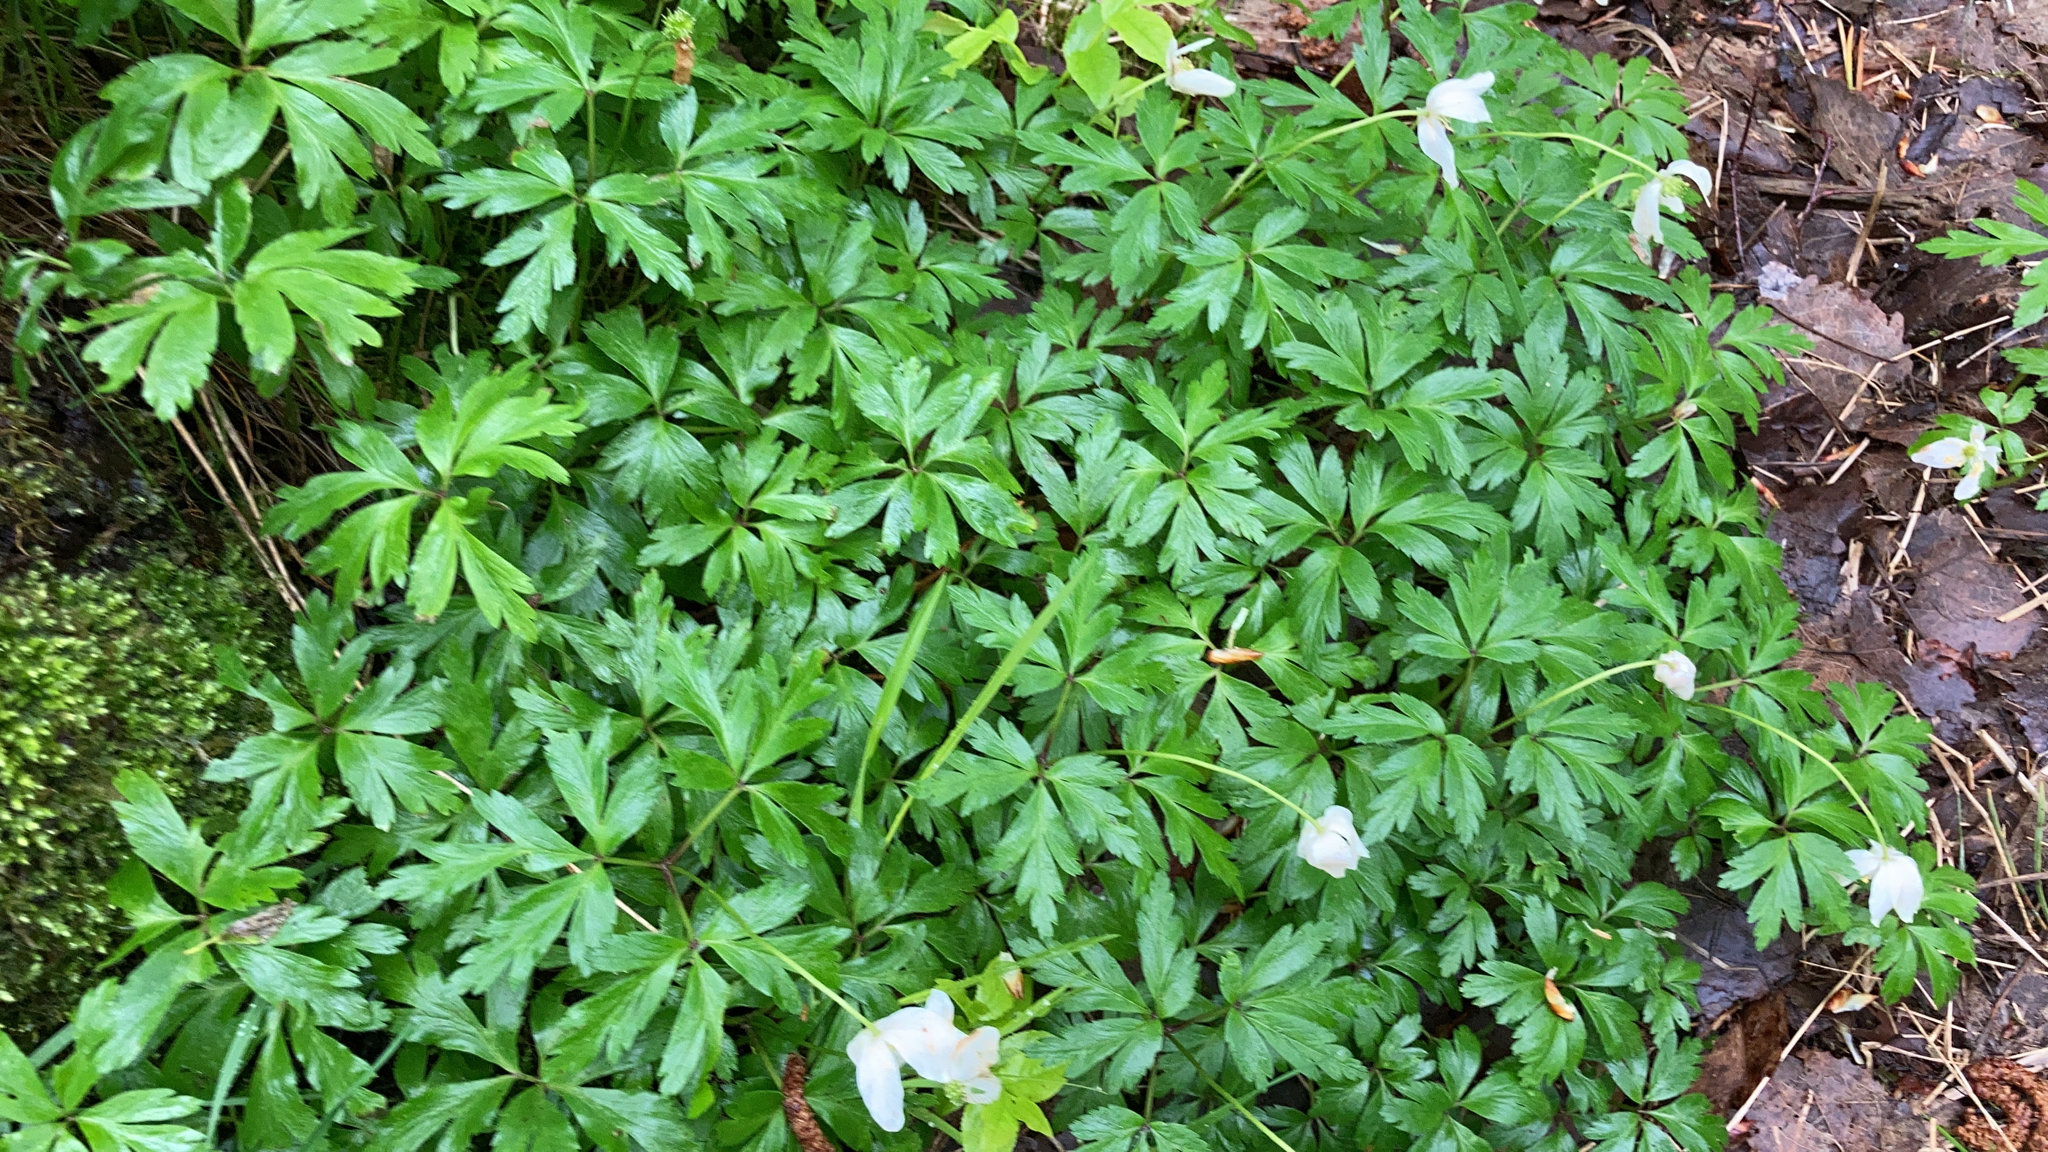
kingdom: Plantae
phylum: Tracheophyta
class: Magnoliopsida
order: Ranunculales
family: Ranunculaceae
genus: Anemone
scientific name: Anemone nemorosa
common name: Wood anemone
